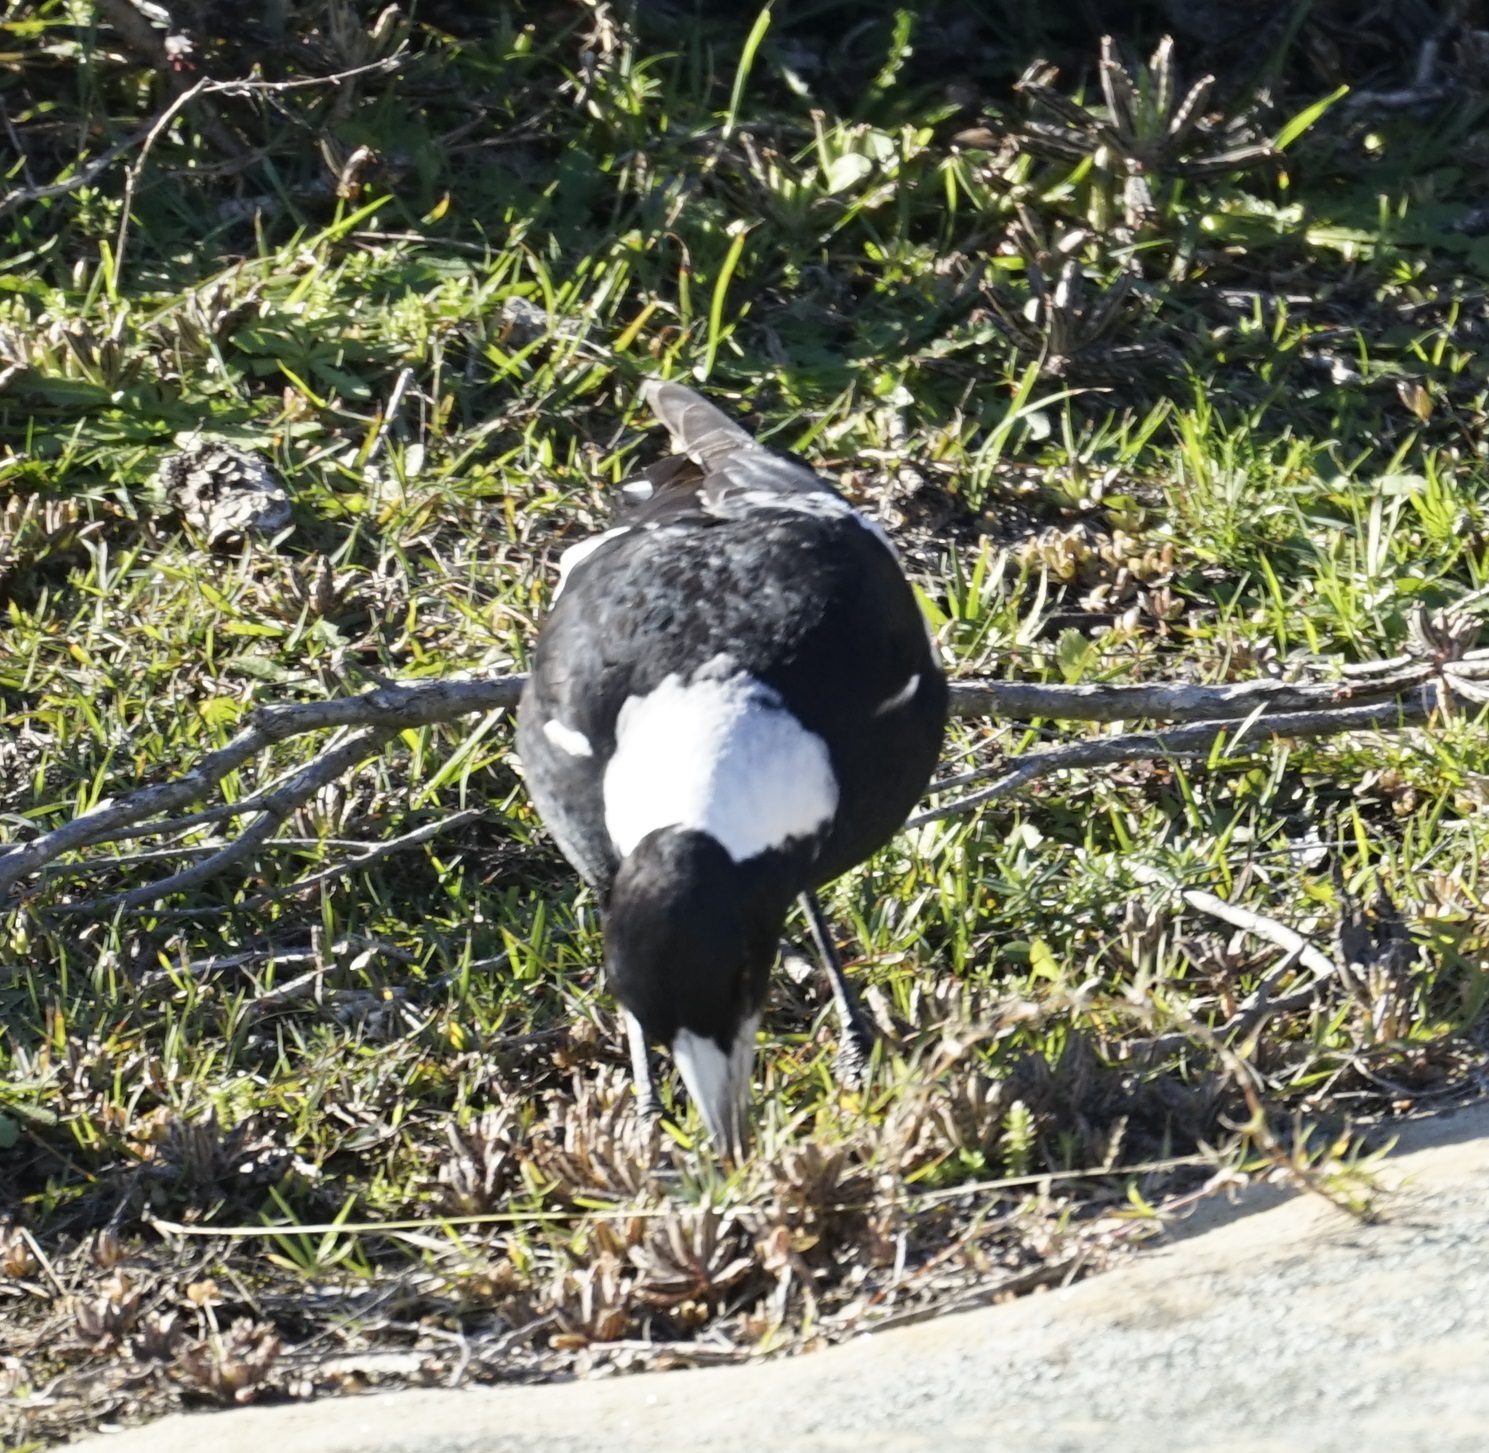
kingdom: Animalia
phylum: Chordata
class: Aves
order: Passeriformes
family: Cracticidae
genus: Gymnorhina
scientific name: Gymnorhina tibicen
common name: Australian magpie
